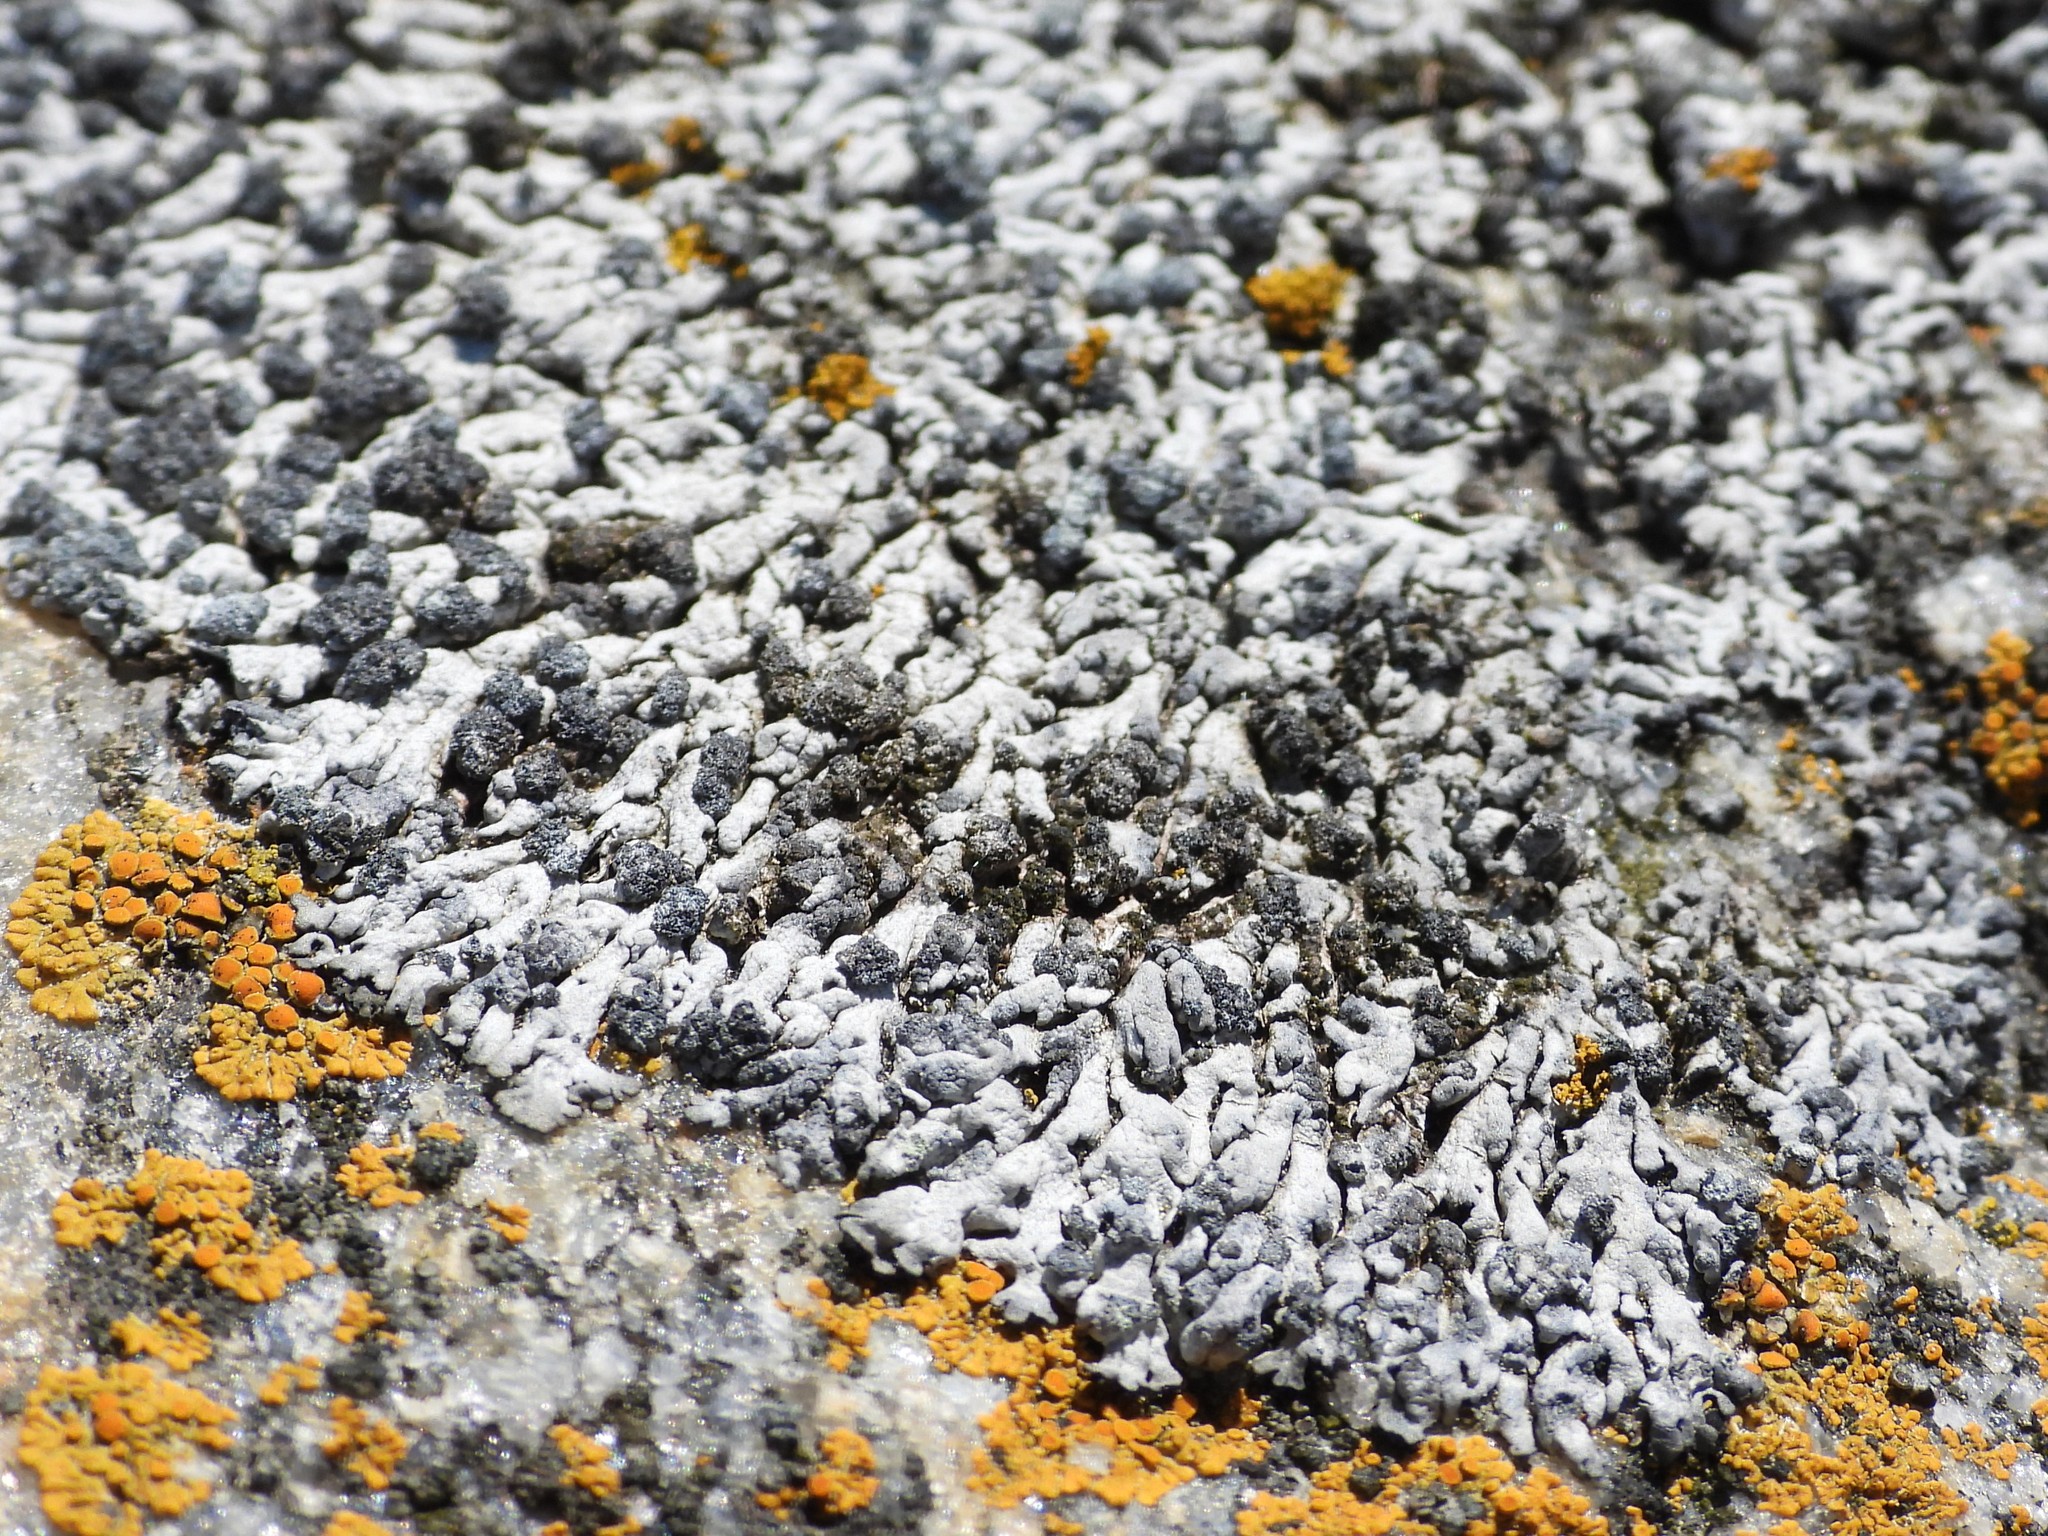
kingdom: Fungi
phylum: Ascomycota
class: Lecanoromycetes
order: Caliciales
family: Physciaceae
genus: Physcia
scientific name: Physcia caesia
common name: Blue-gray rosette lichen
